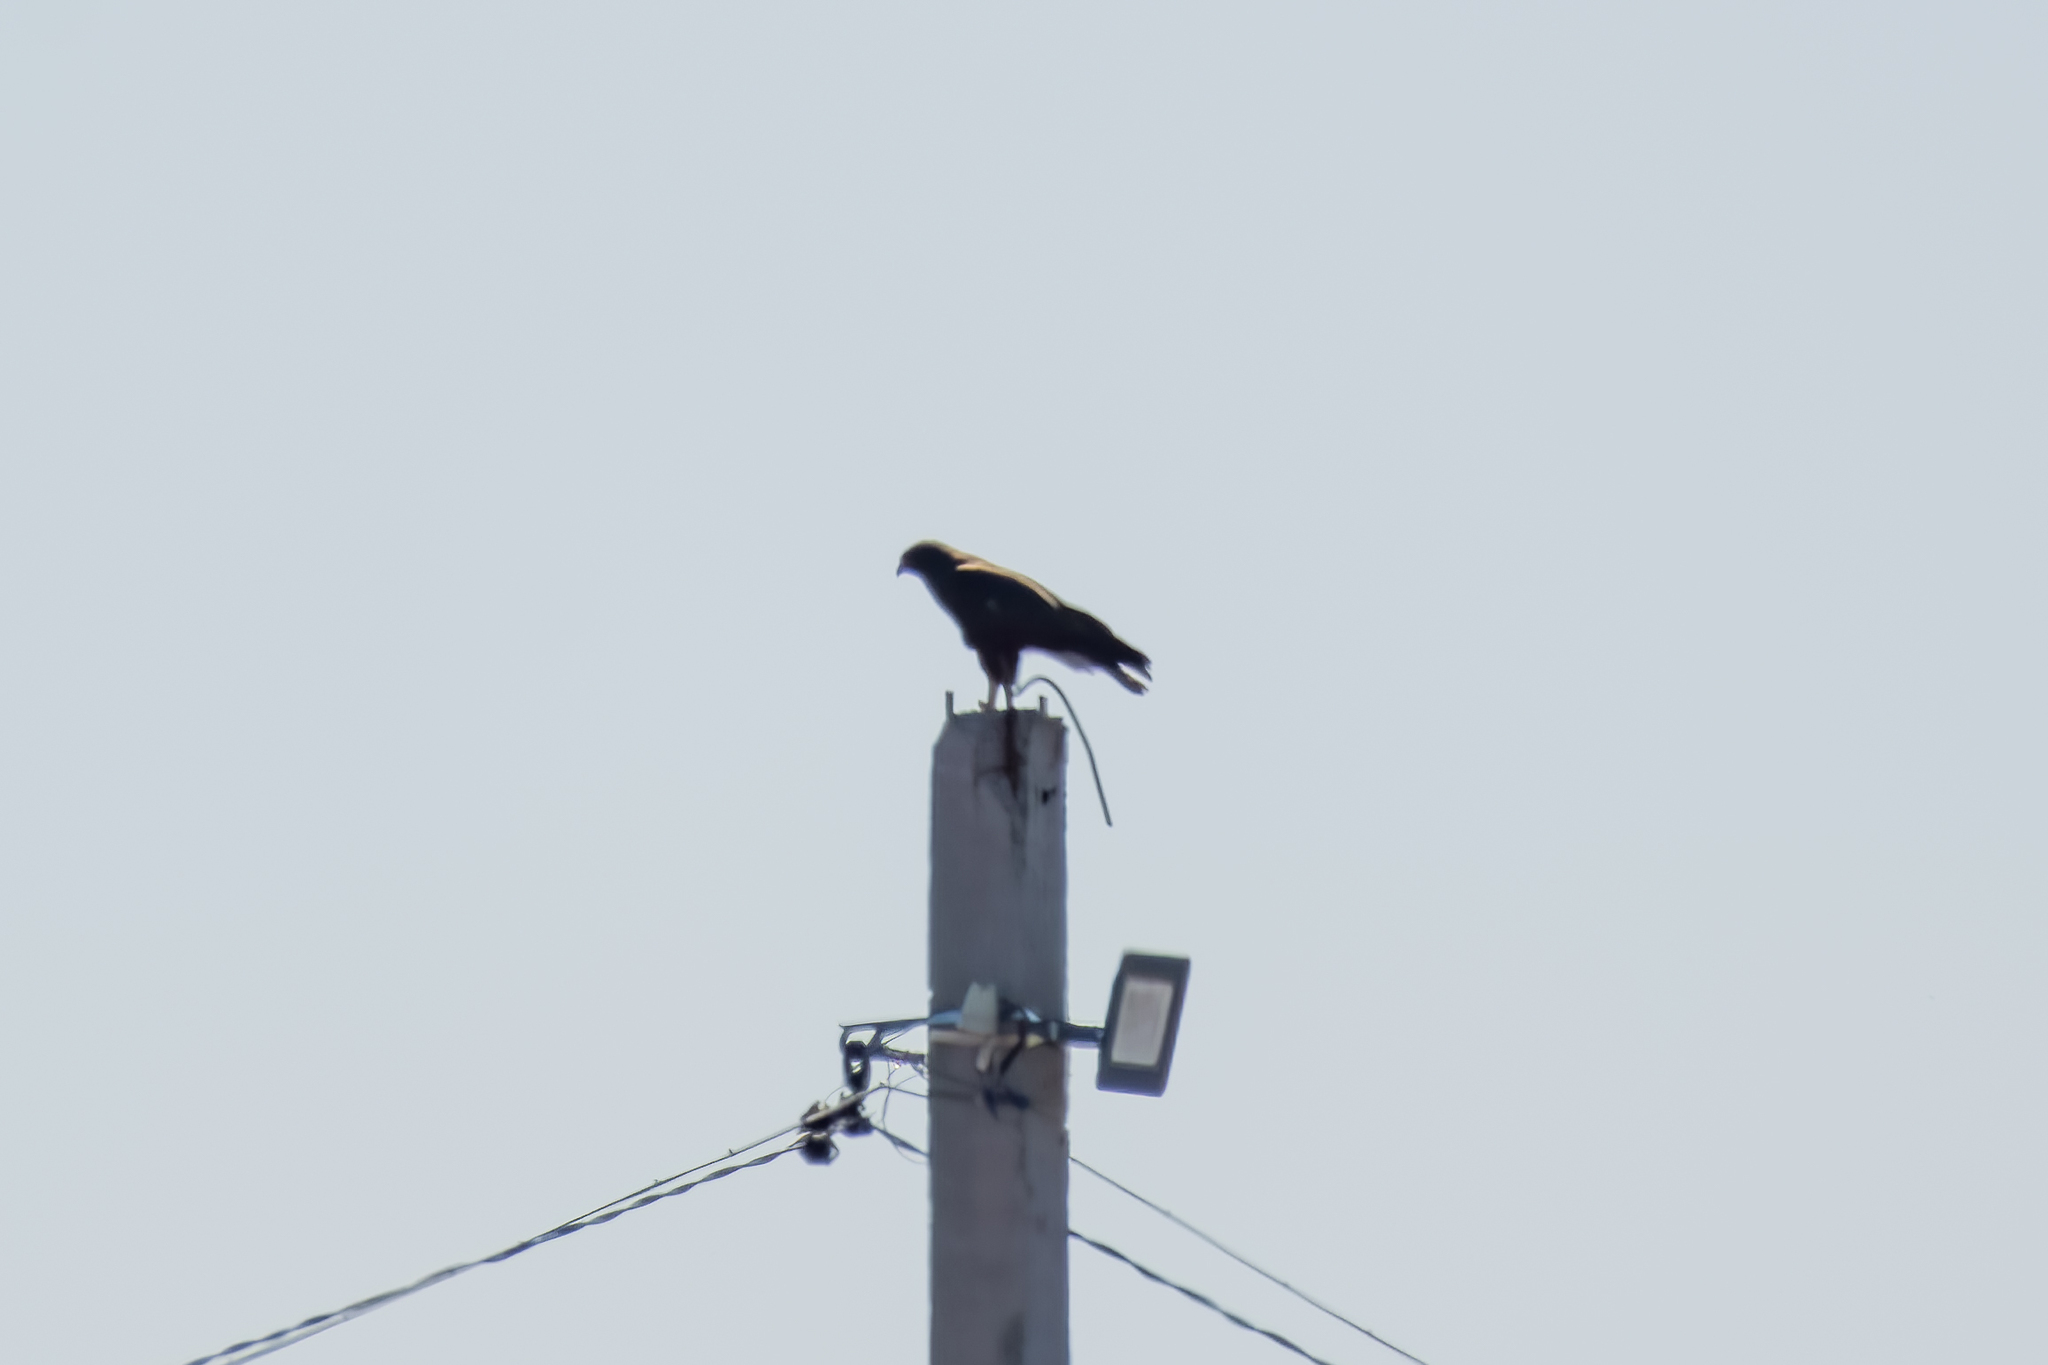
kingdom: Animalia
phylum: Chordata
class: Aves
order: Accipitriformes
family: Accipitridae
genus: Buteo
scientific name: Buteo buteo
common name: Common buzzard
